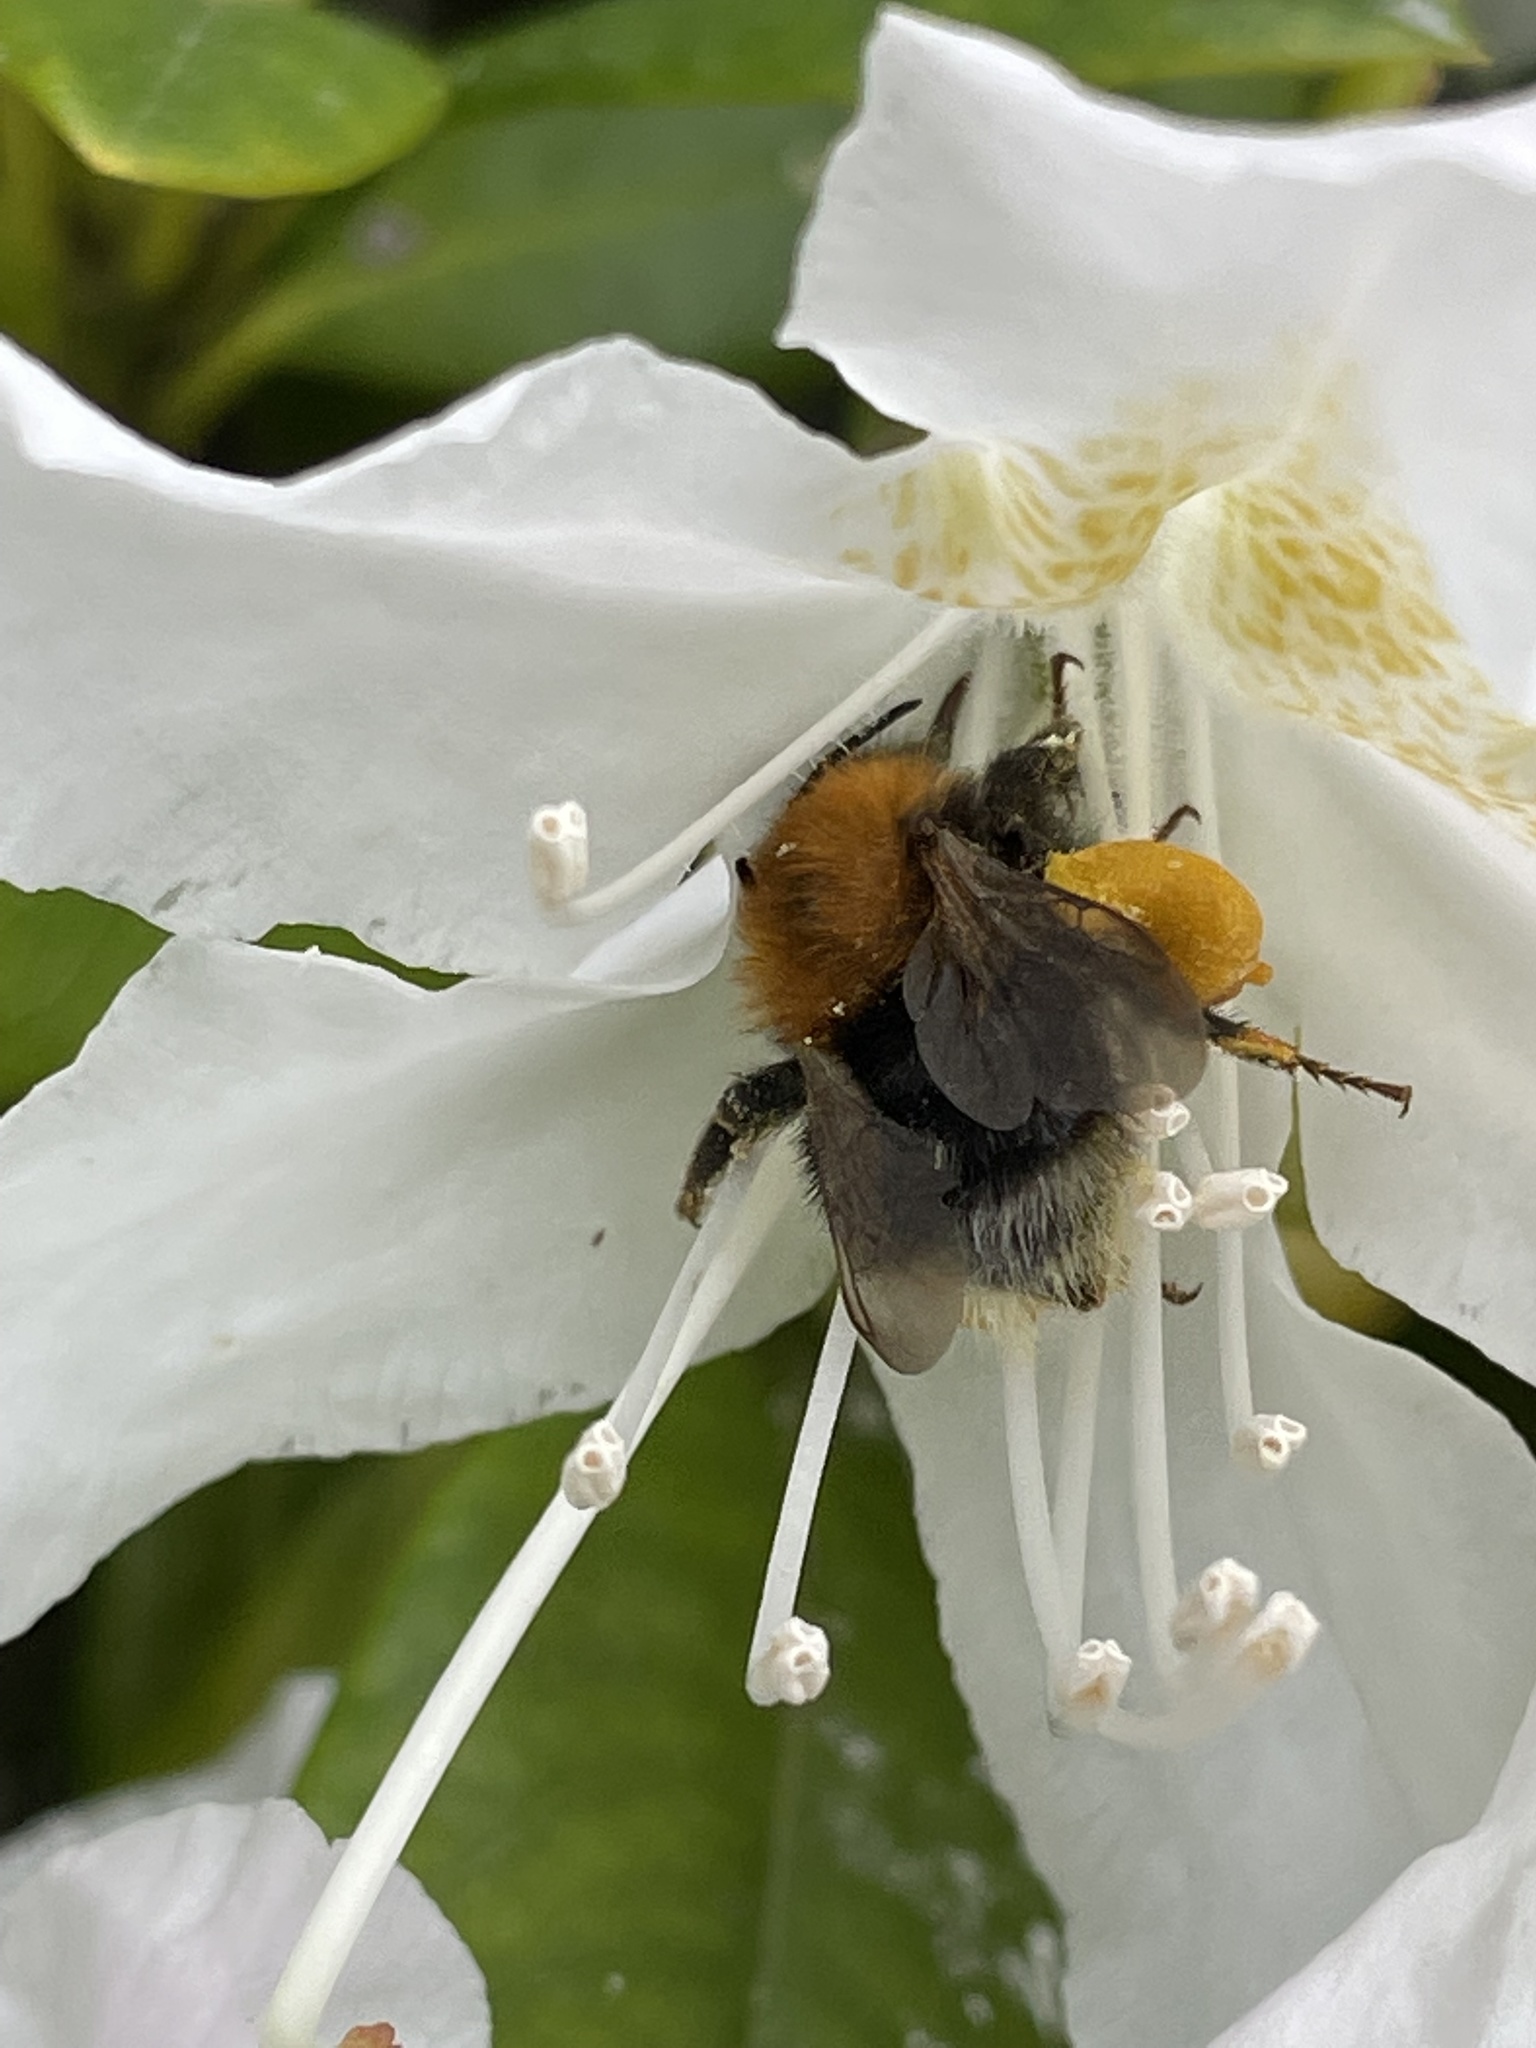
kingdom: Animalia
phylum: Arthropoda
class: Insecta
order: Hymenoptera
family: Apidae
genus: Bombus
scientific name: Bombus hypnorum
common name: New garden bumblebee
